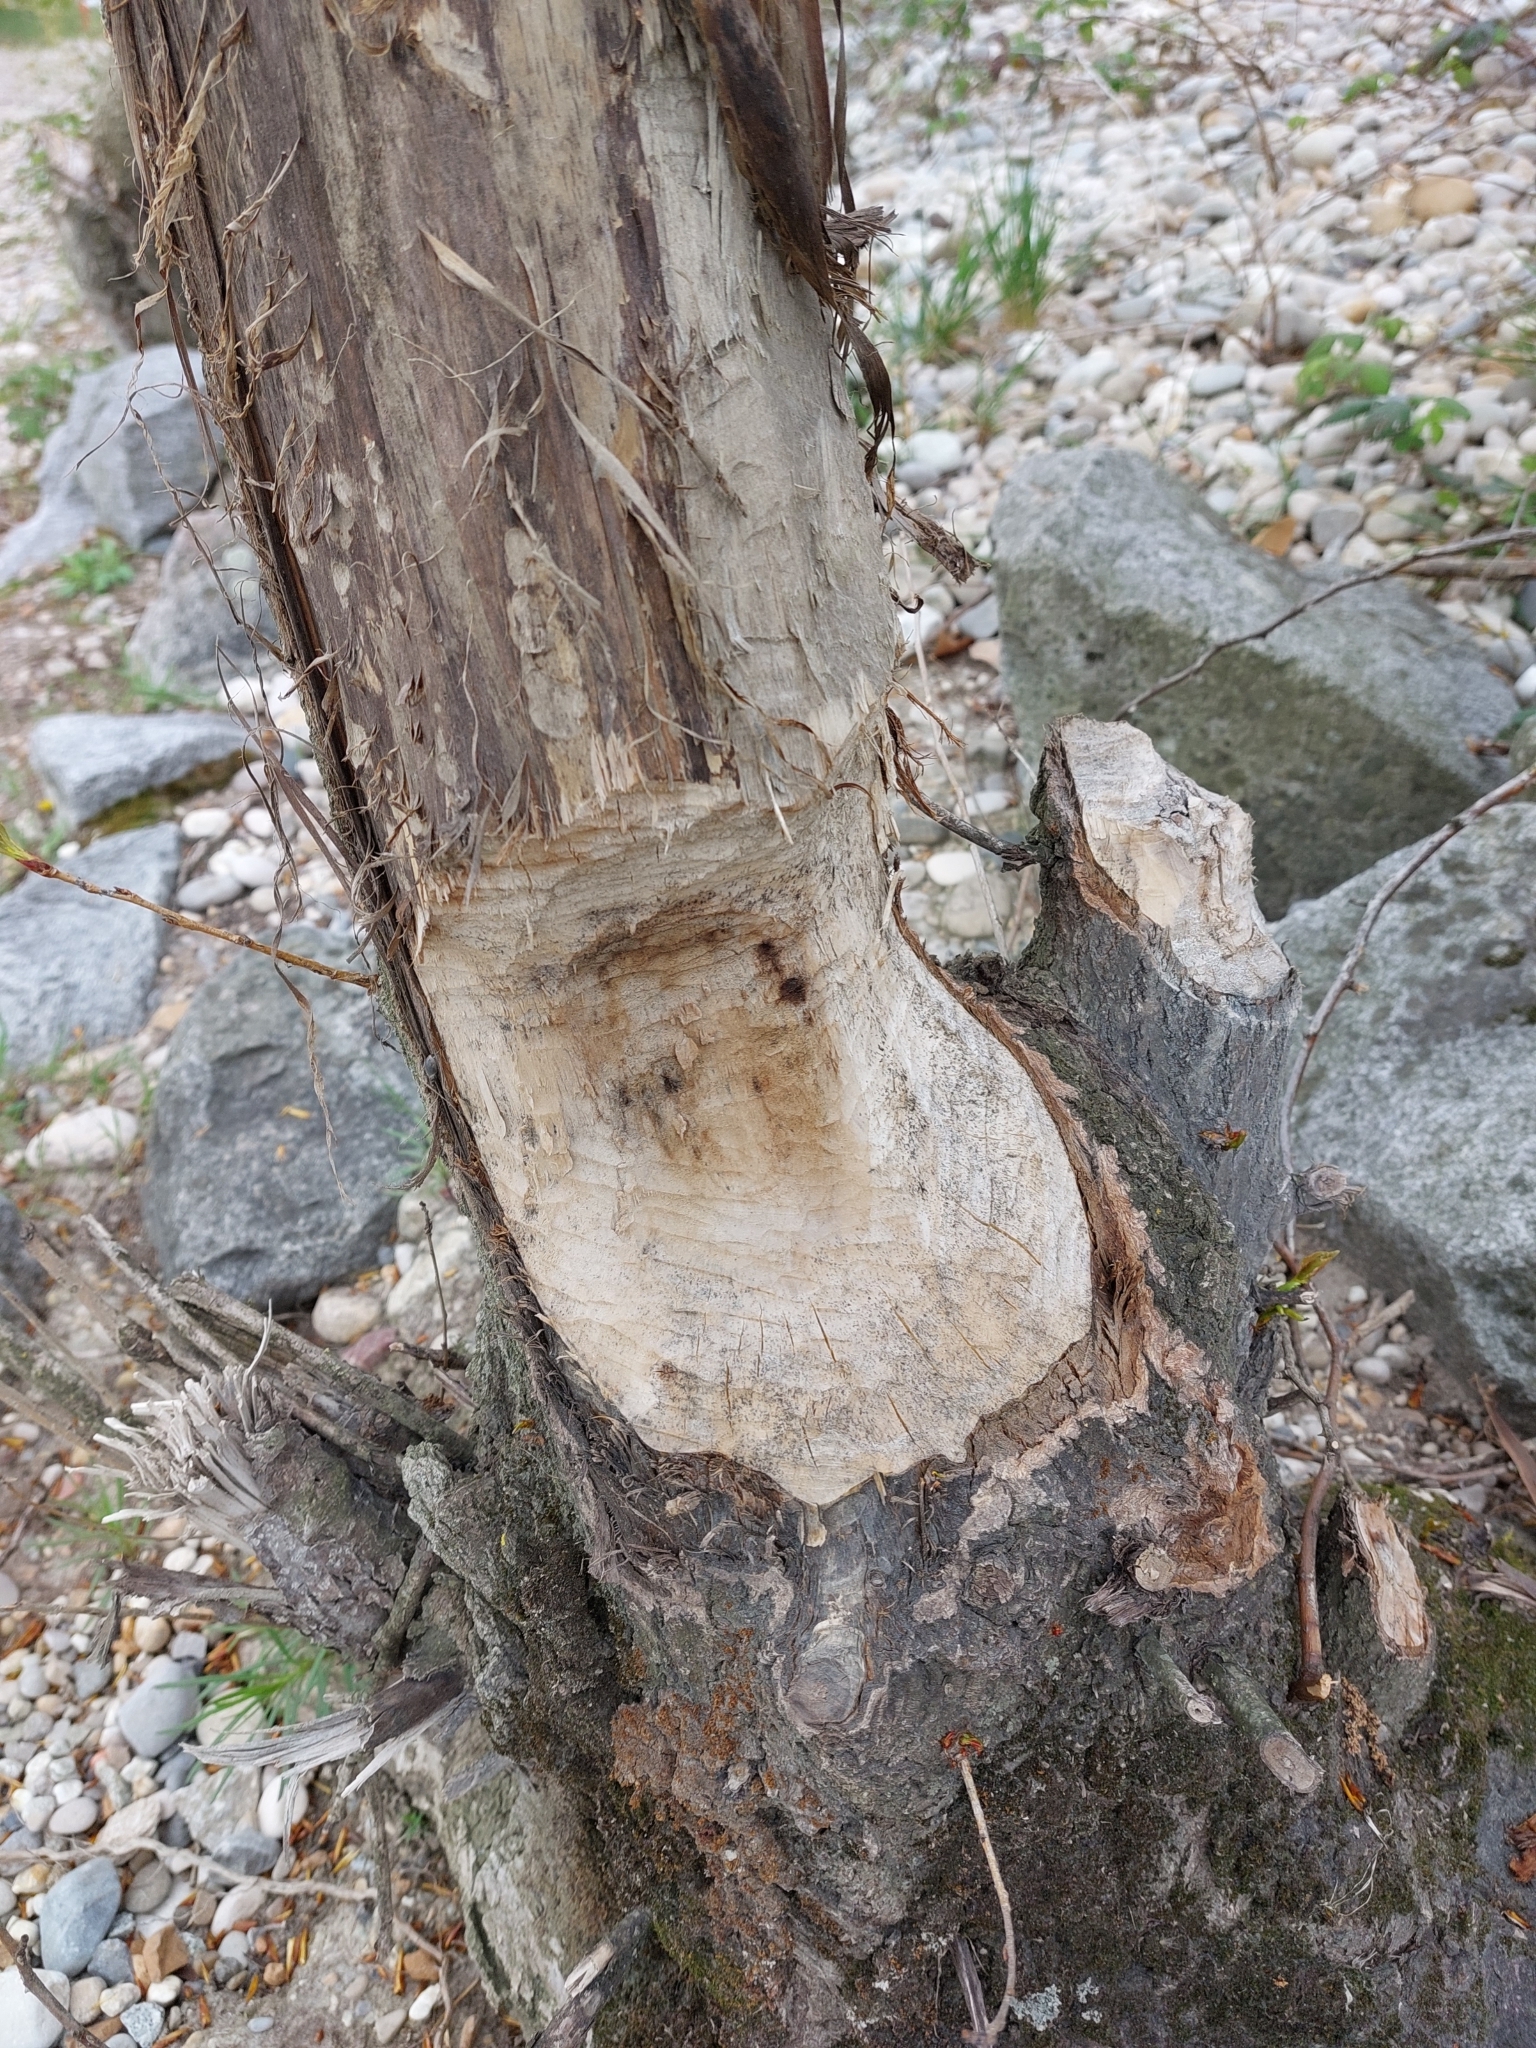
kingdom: Animalia
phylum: Chordata
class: Mammalia
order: Rodentia
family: Castoridae
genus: Castor
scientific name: Castor fiber
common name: Eurasian beaver
